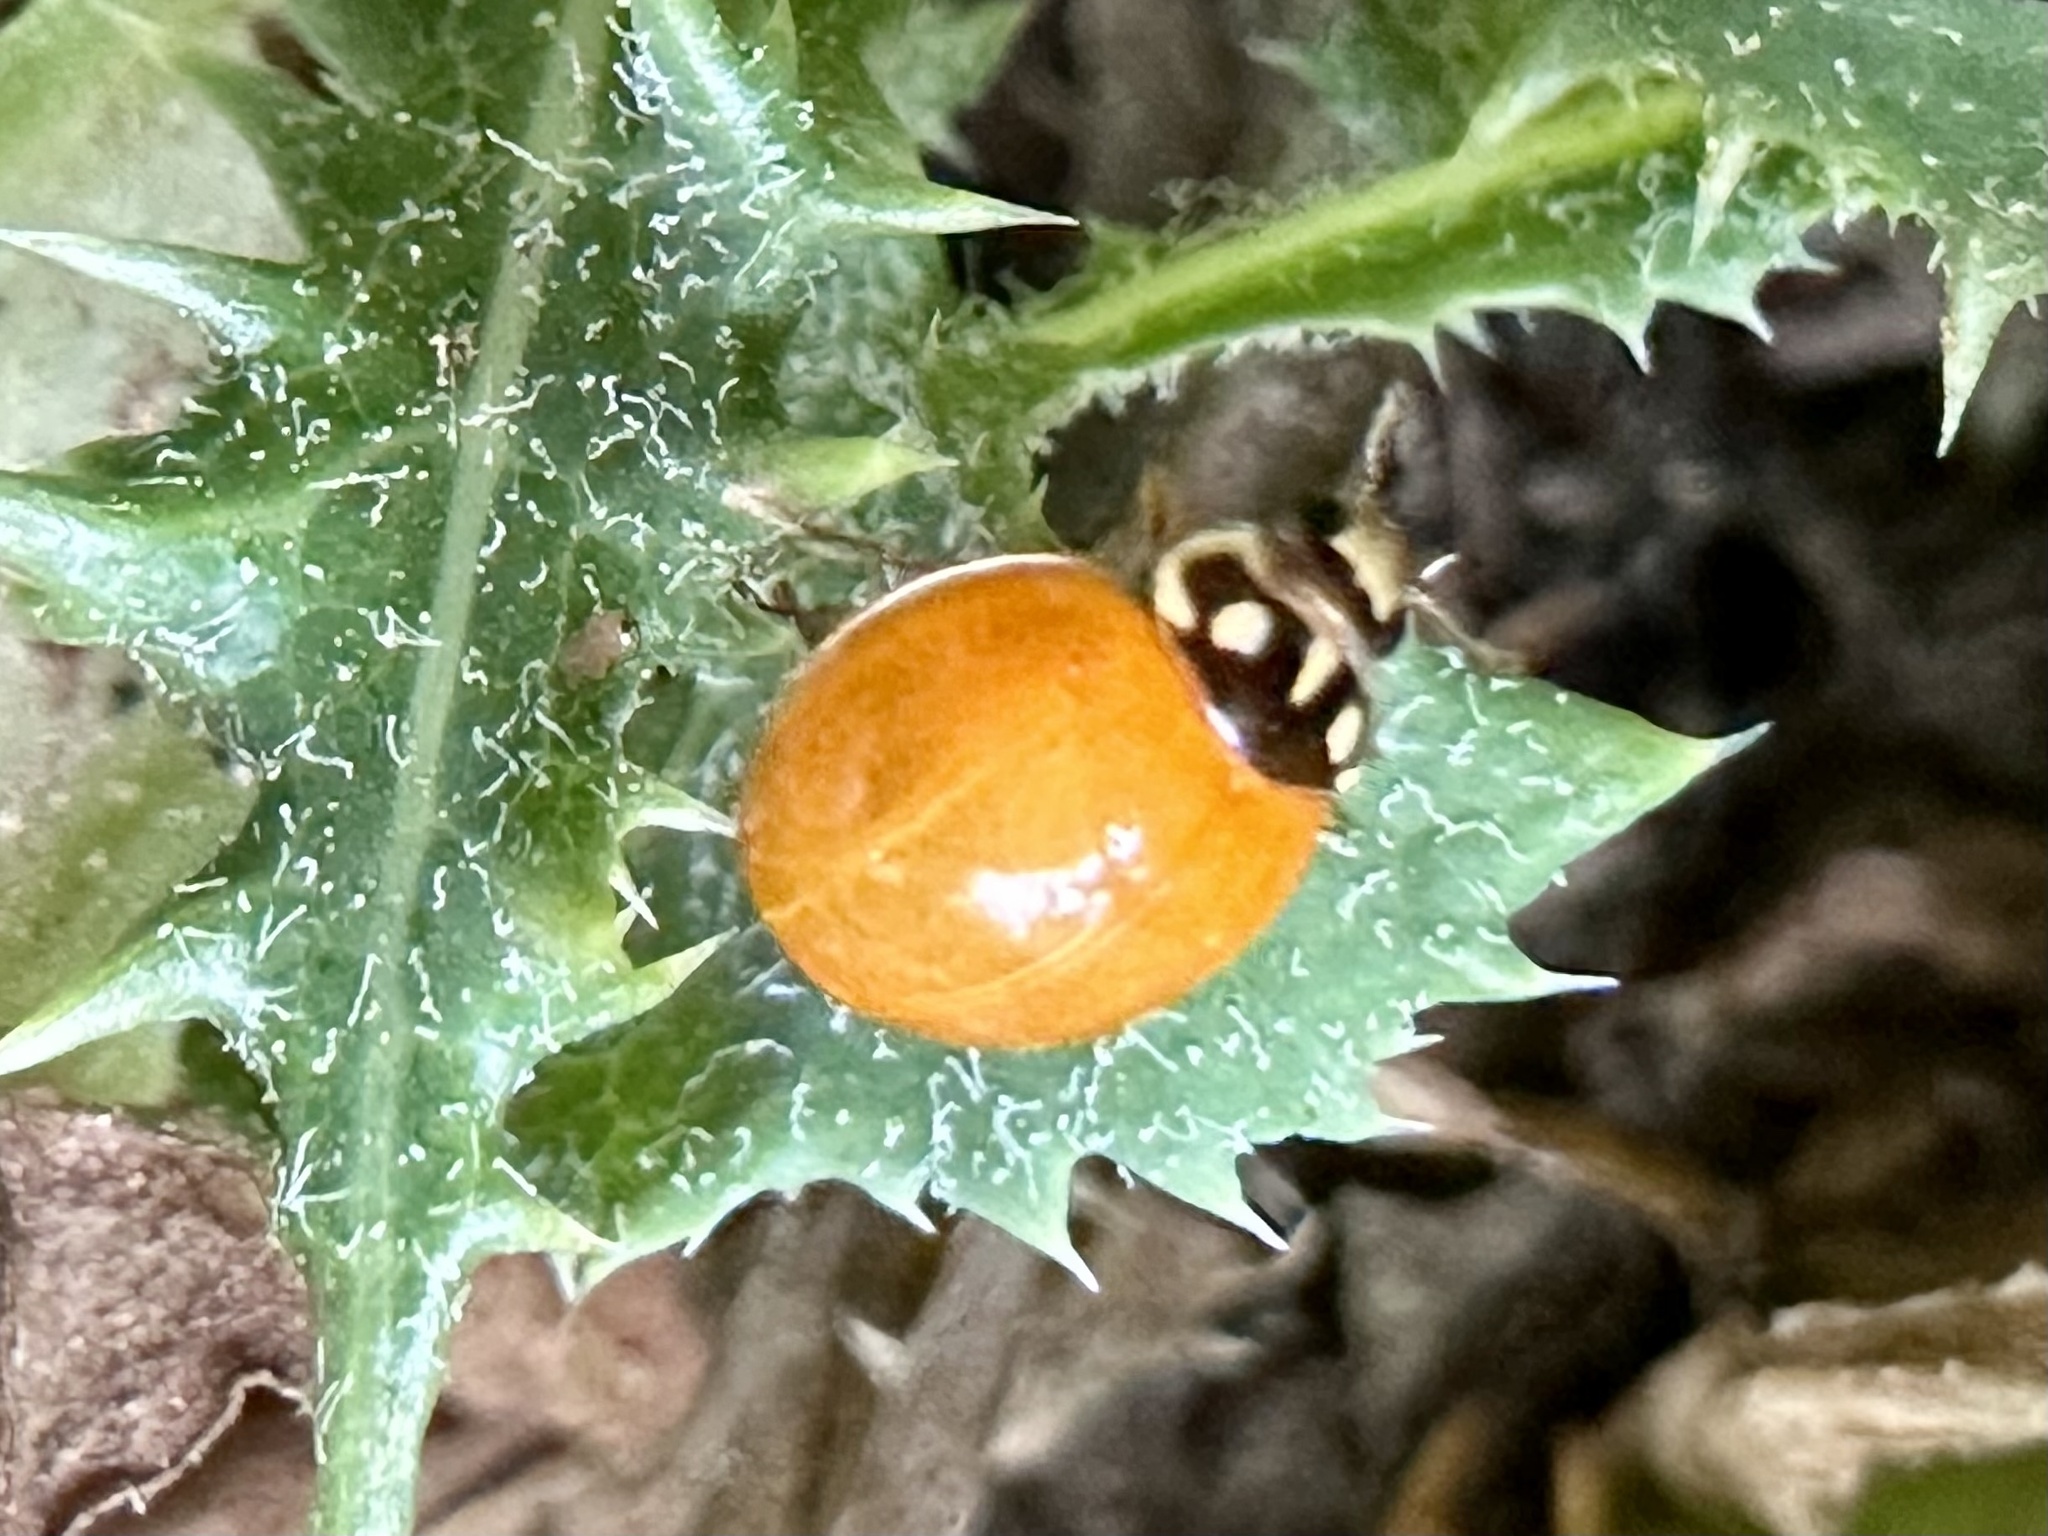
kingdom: Animalia
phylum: Arthropoda
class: Insecta
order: Coleoptera
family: Coccinellidae
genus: Cycloneda
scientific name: Cycloneda sanguinea
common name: Ladybird beetle
